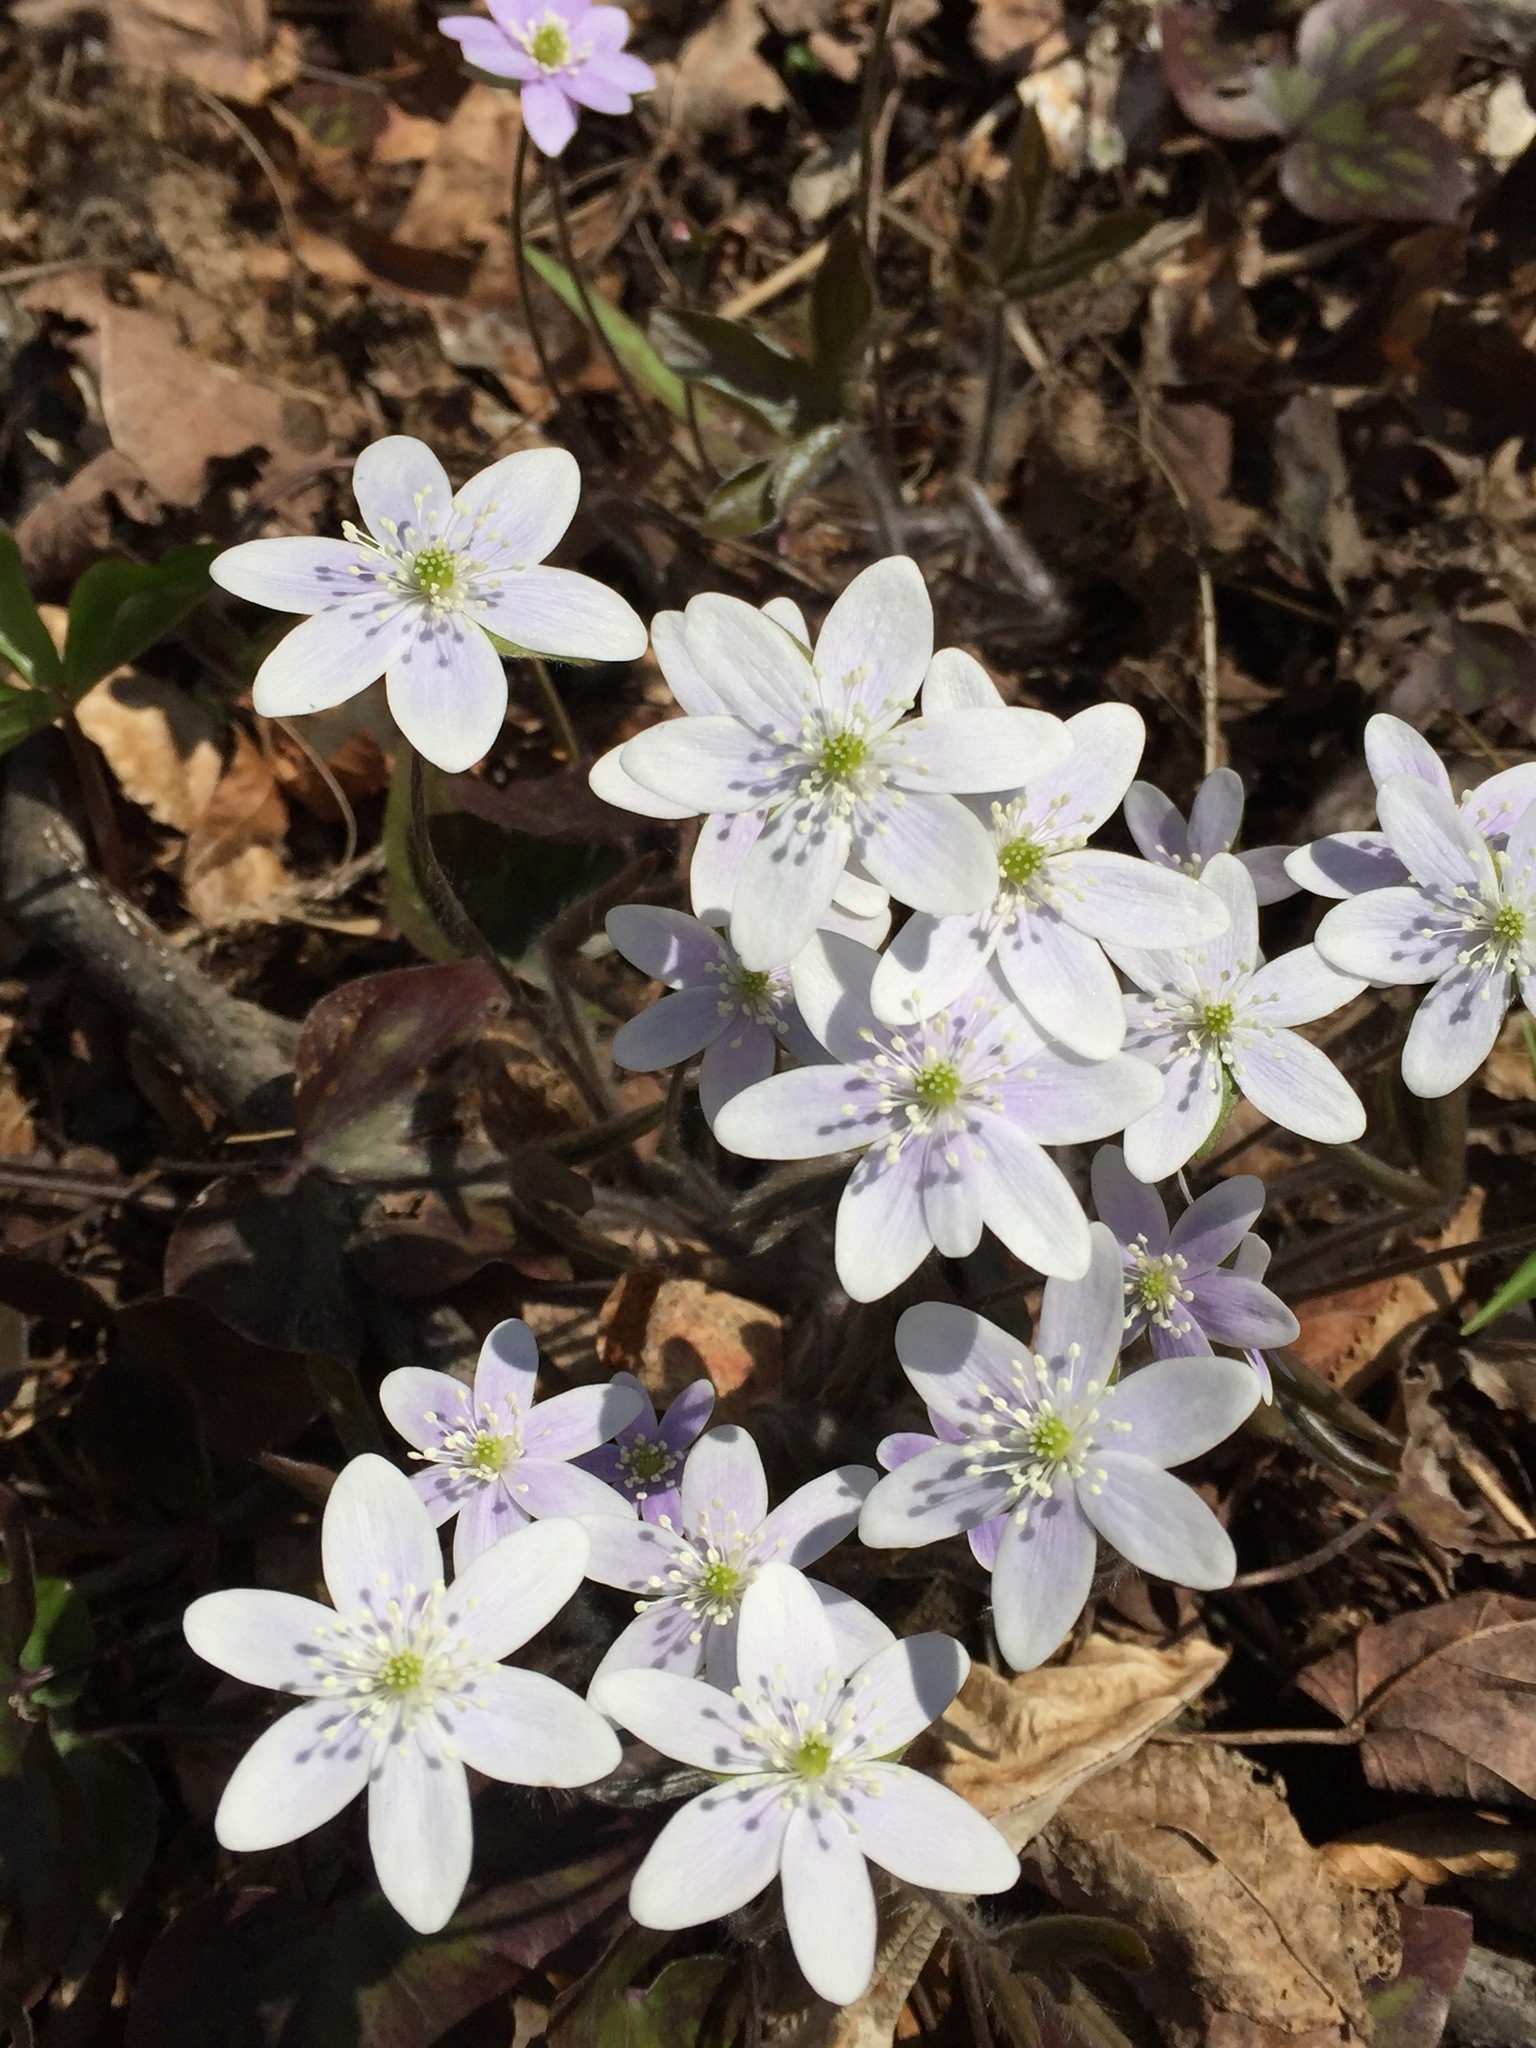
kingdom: Plantae
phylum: Tracheophyta
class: Magnoliopsida
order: Ranunculales
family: Ranunculaceae
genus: Hepatica
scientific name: Hepatica acutiloba
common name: Sharp-lobed hepatica
